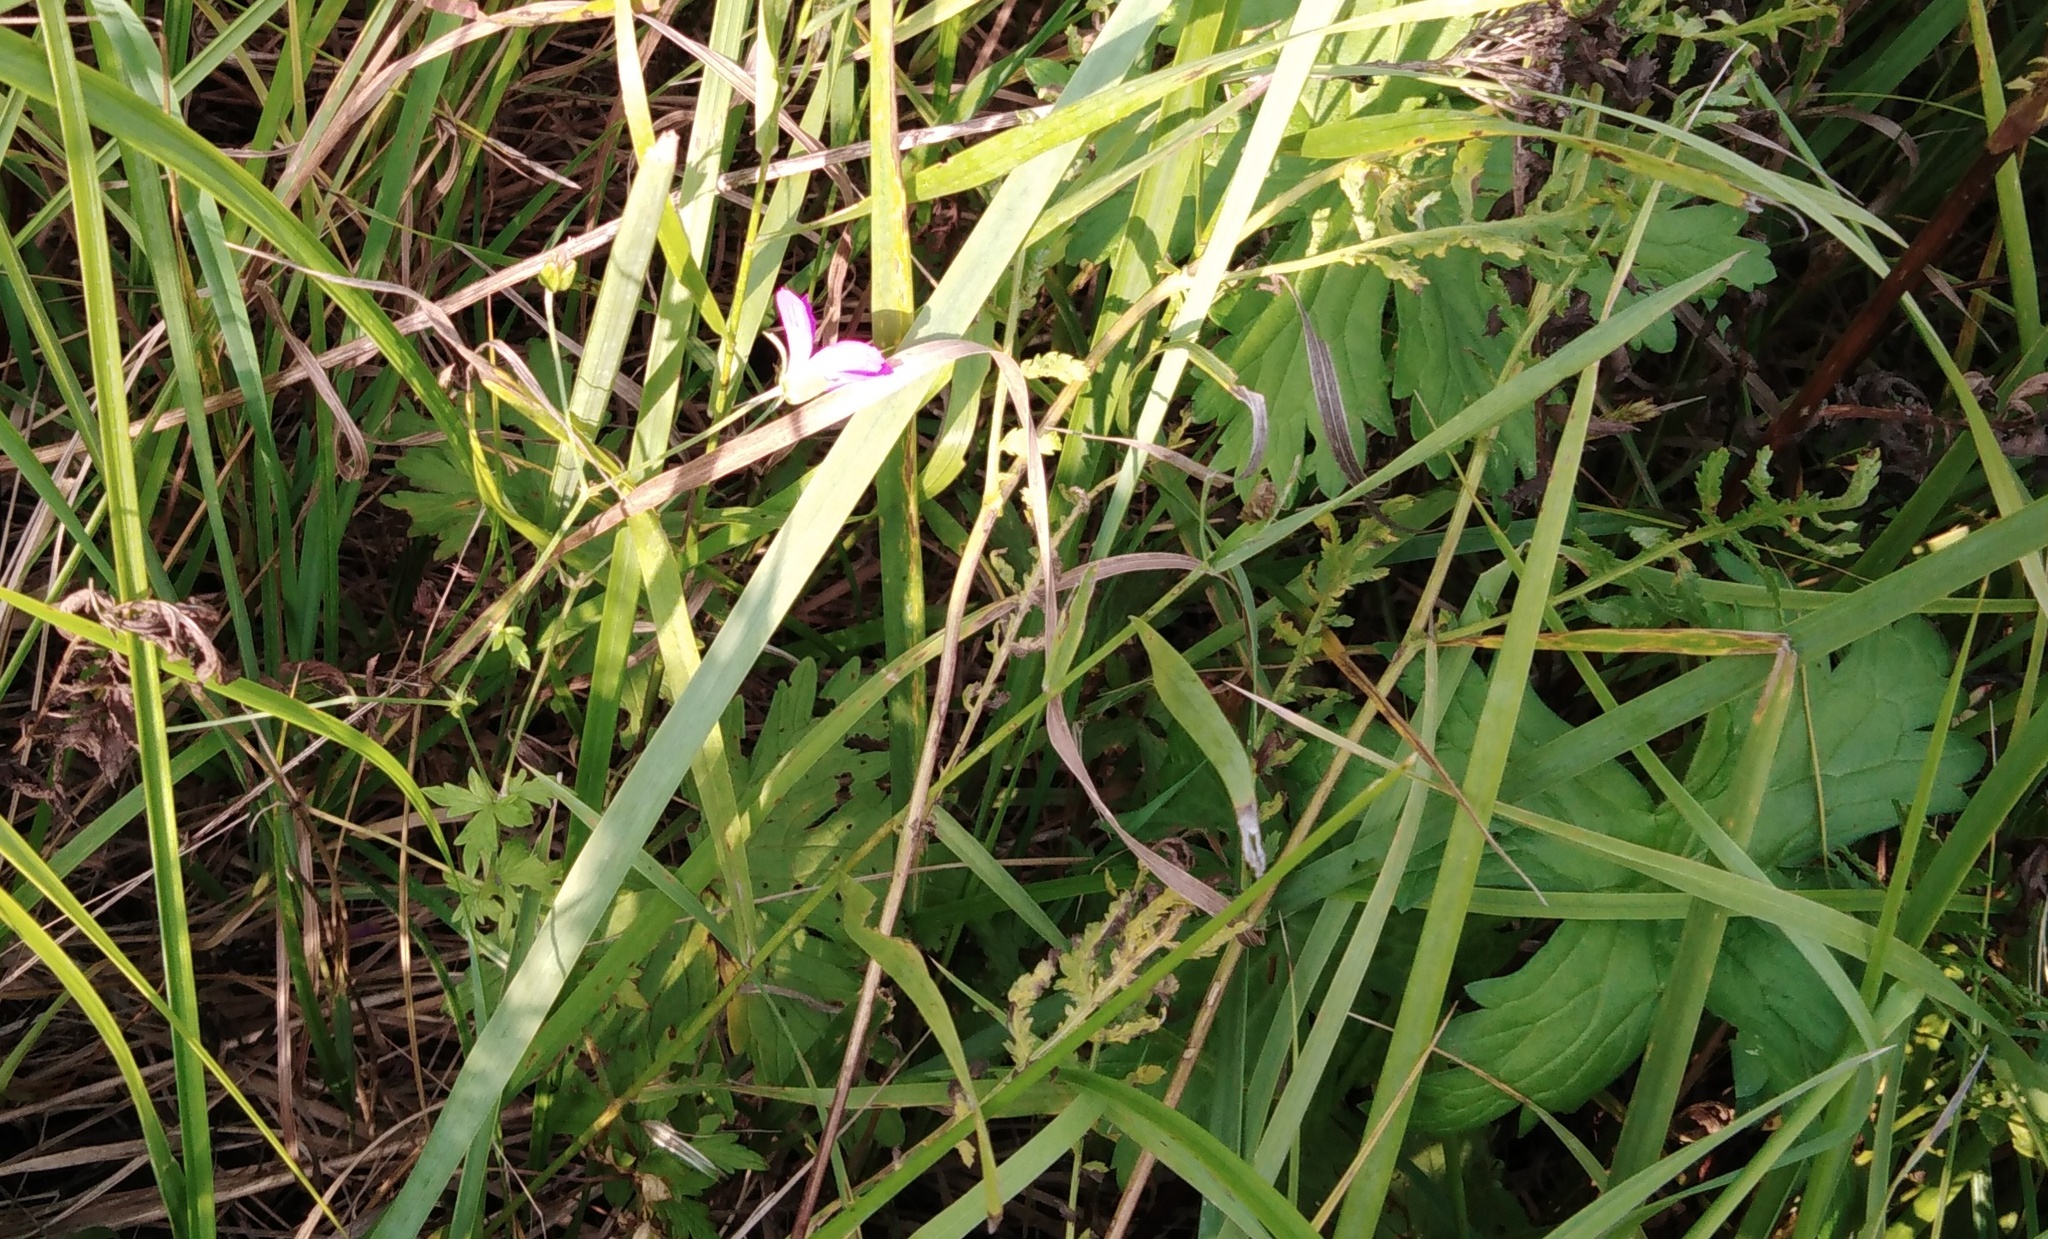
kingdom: Plantae
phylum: Tracheophyta
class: Magnoliopsida
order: Geraniales
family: Geraniaceae
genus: Geranium
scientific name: Geranium palustre
